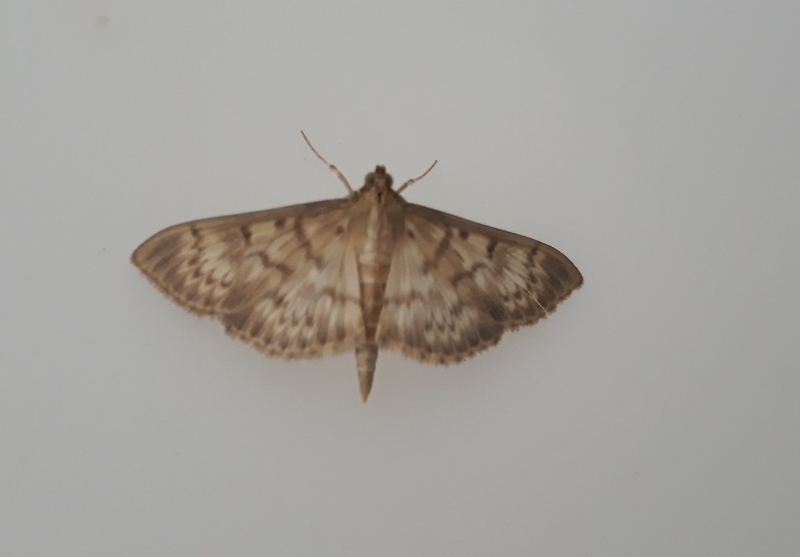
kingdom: Animalia
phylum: Arthropoda
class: Insecta
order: Lepidoptera
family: Crambidae
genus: Patania
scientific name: Patania ruralis
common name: Mother of pearl
